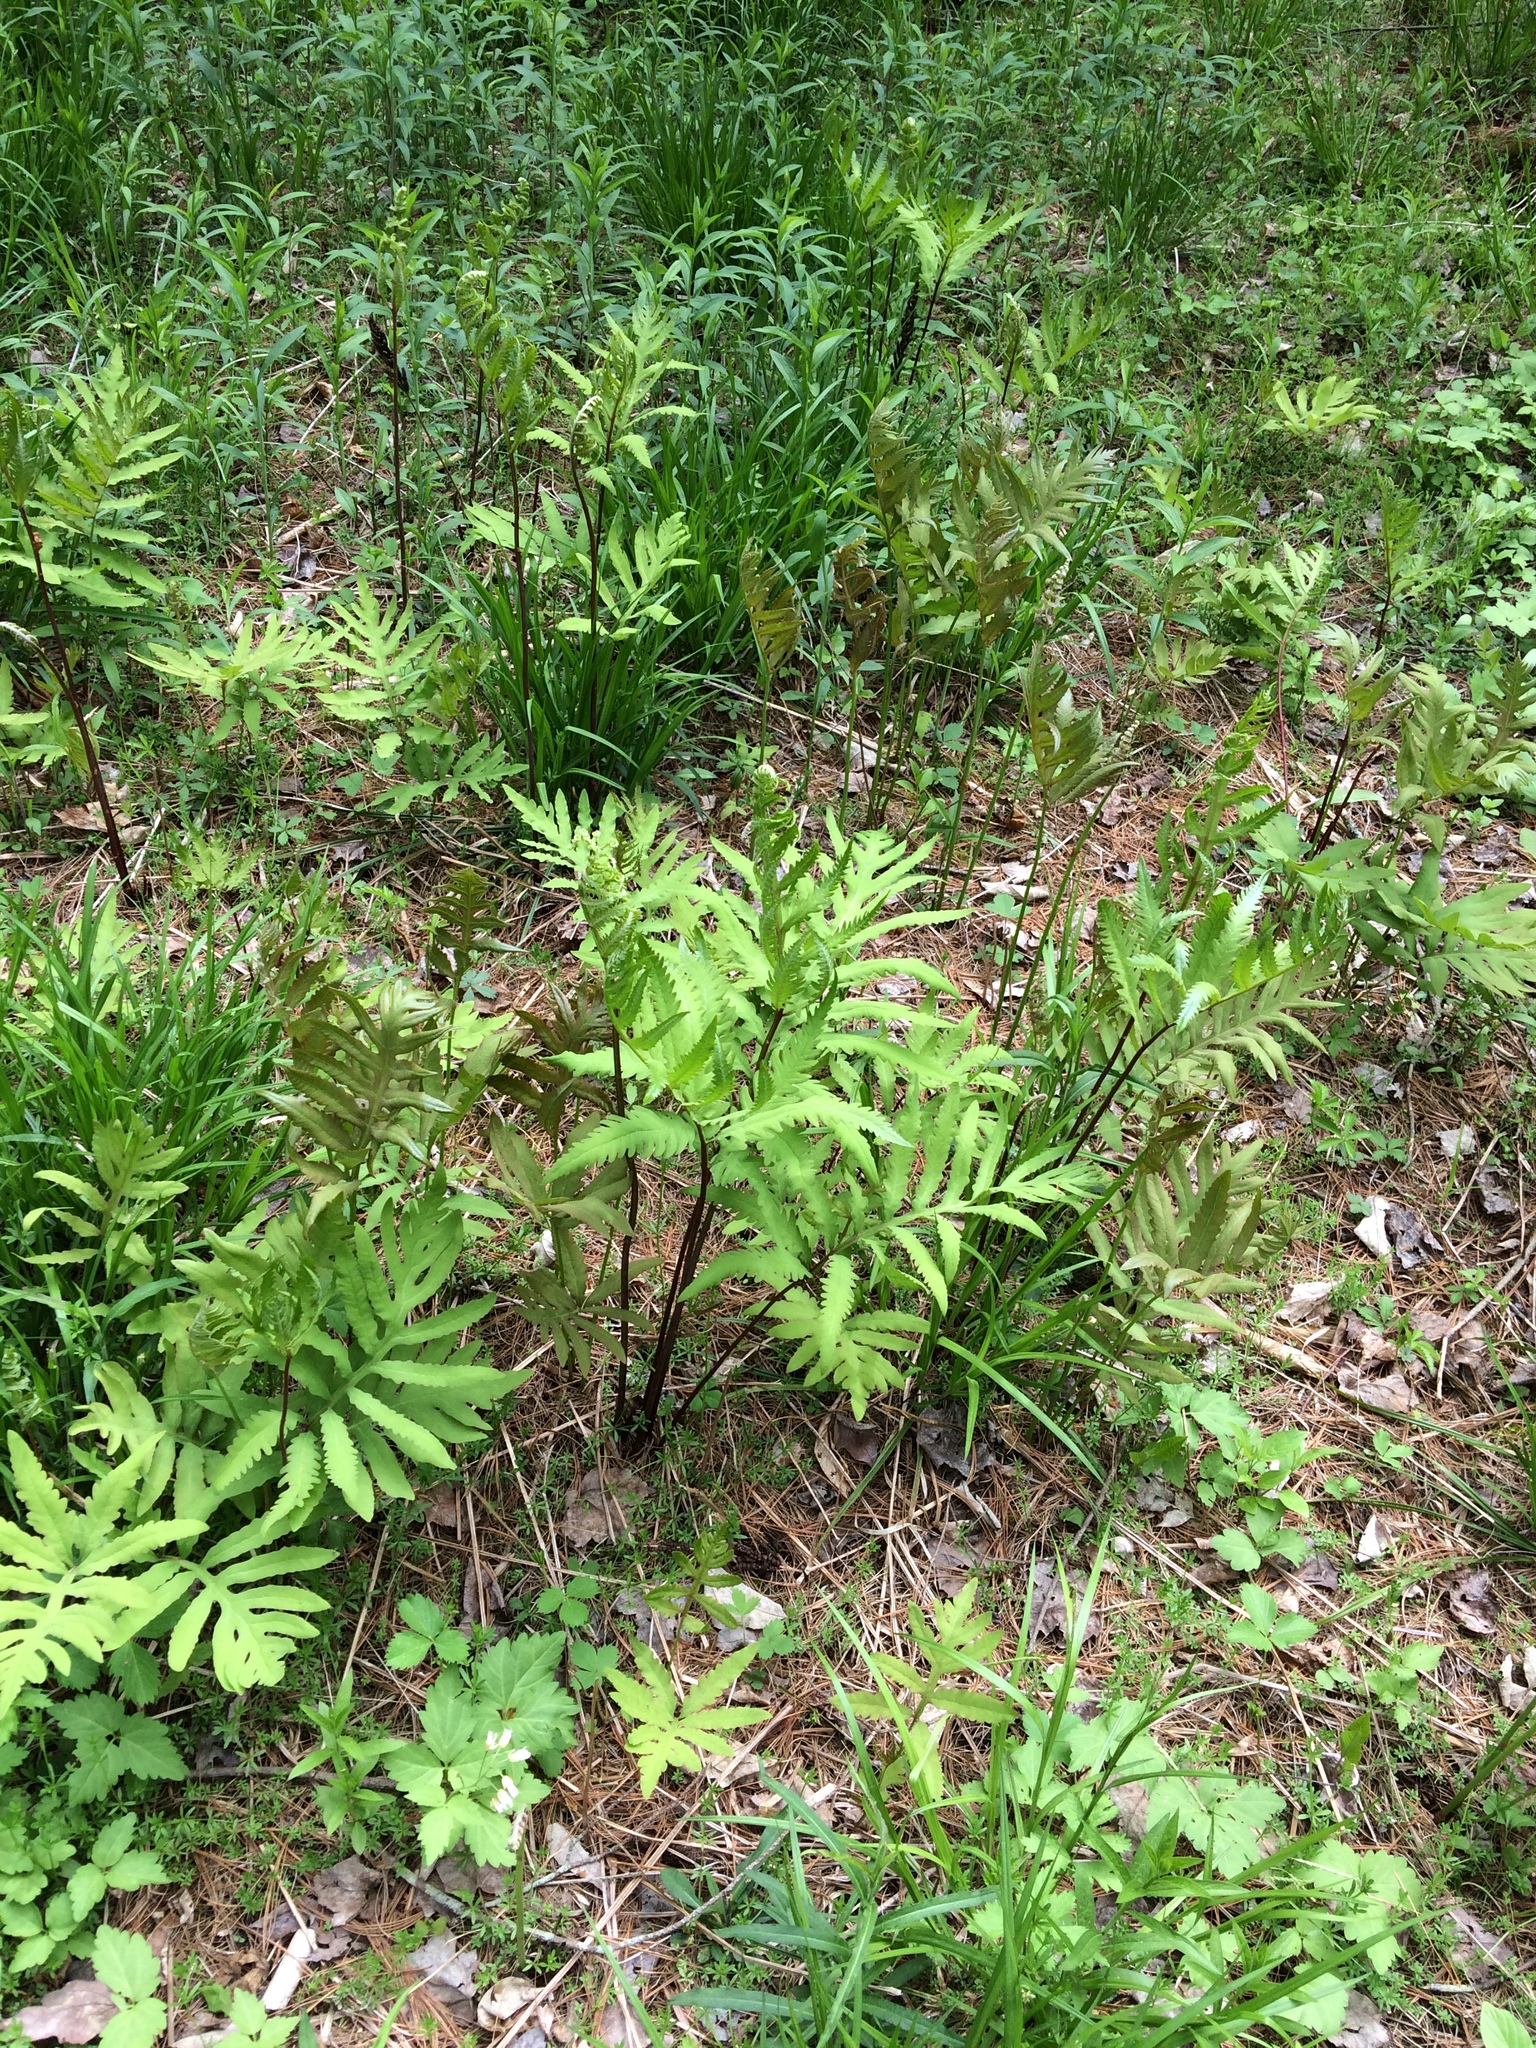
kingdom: Plantae
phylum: Tracheophyta
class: Polypodiopsida
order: Polypodiales
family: Onocleaceae
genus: Onoclea
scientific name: Onoclea sensibilis
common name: Sensitive fern
